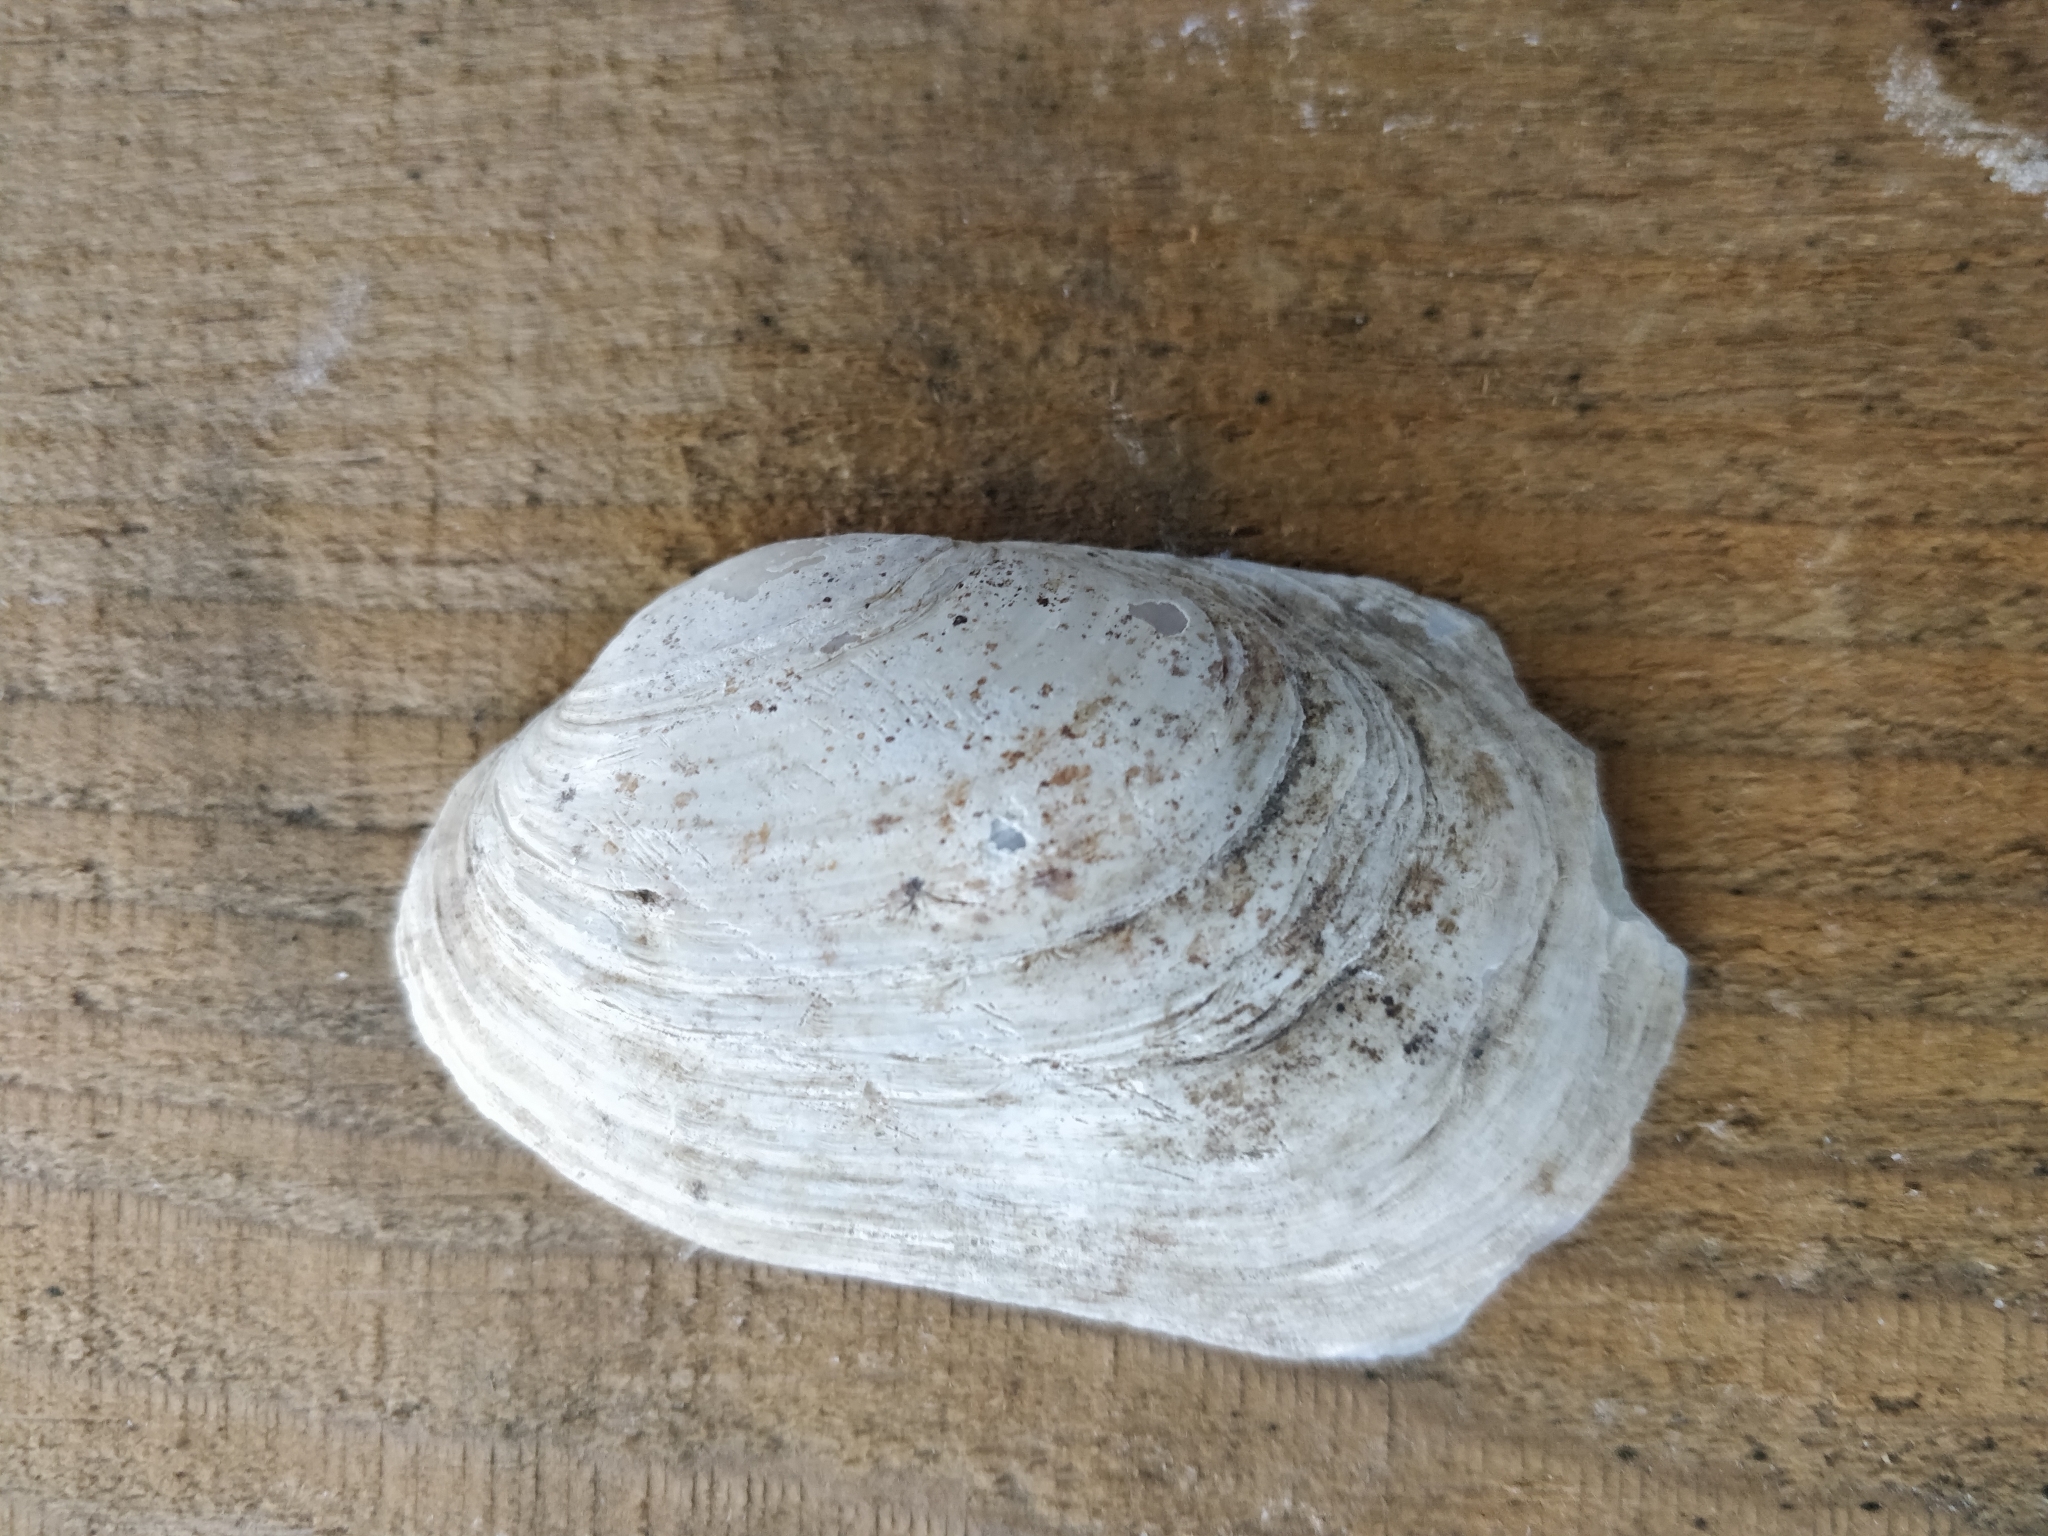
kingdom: Animalia
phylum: Mollusca
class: Bivalvia
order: Unionida
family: Unionidae
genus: Lampsilis
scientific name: Lampsilis siliquoidea
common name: Fatmucket
